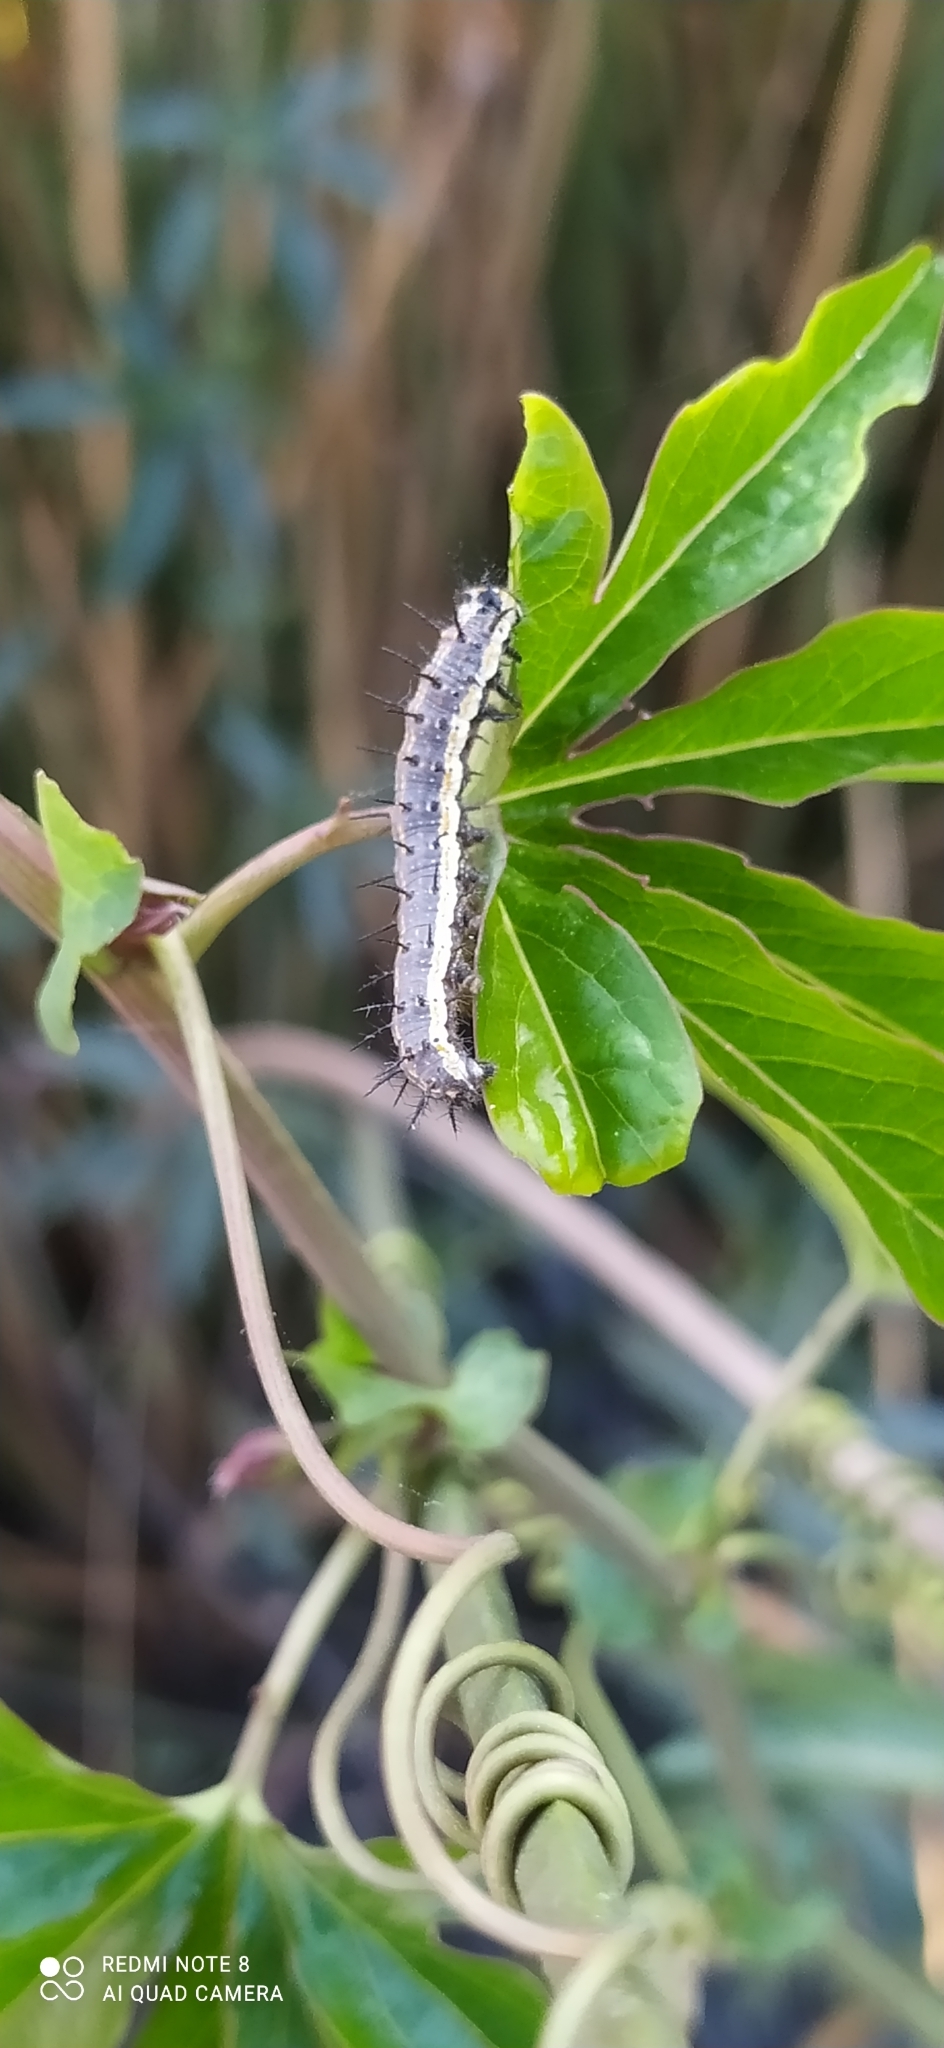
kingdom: Animalia
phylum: Arthropoda
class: Insecta
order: Lepidoptera
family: Nymphalidae
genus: Dione
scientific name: Dione vanillae
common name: Gulf fritillary
